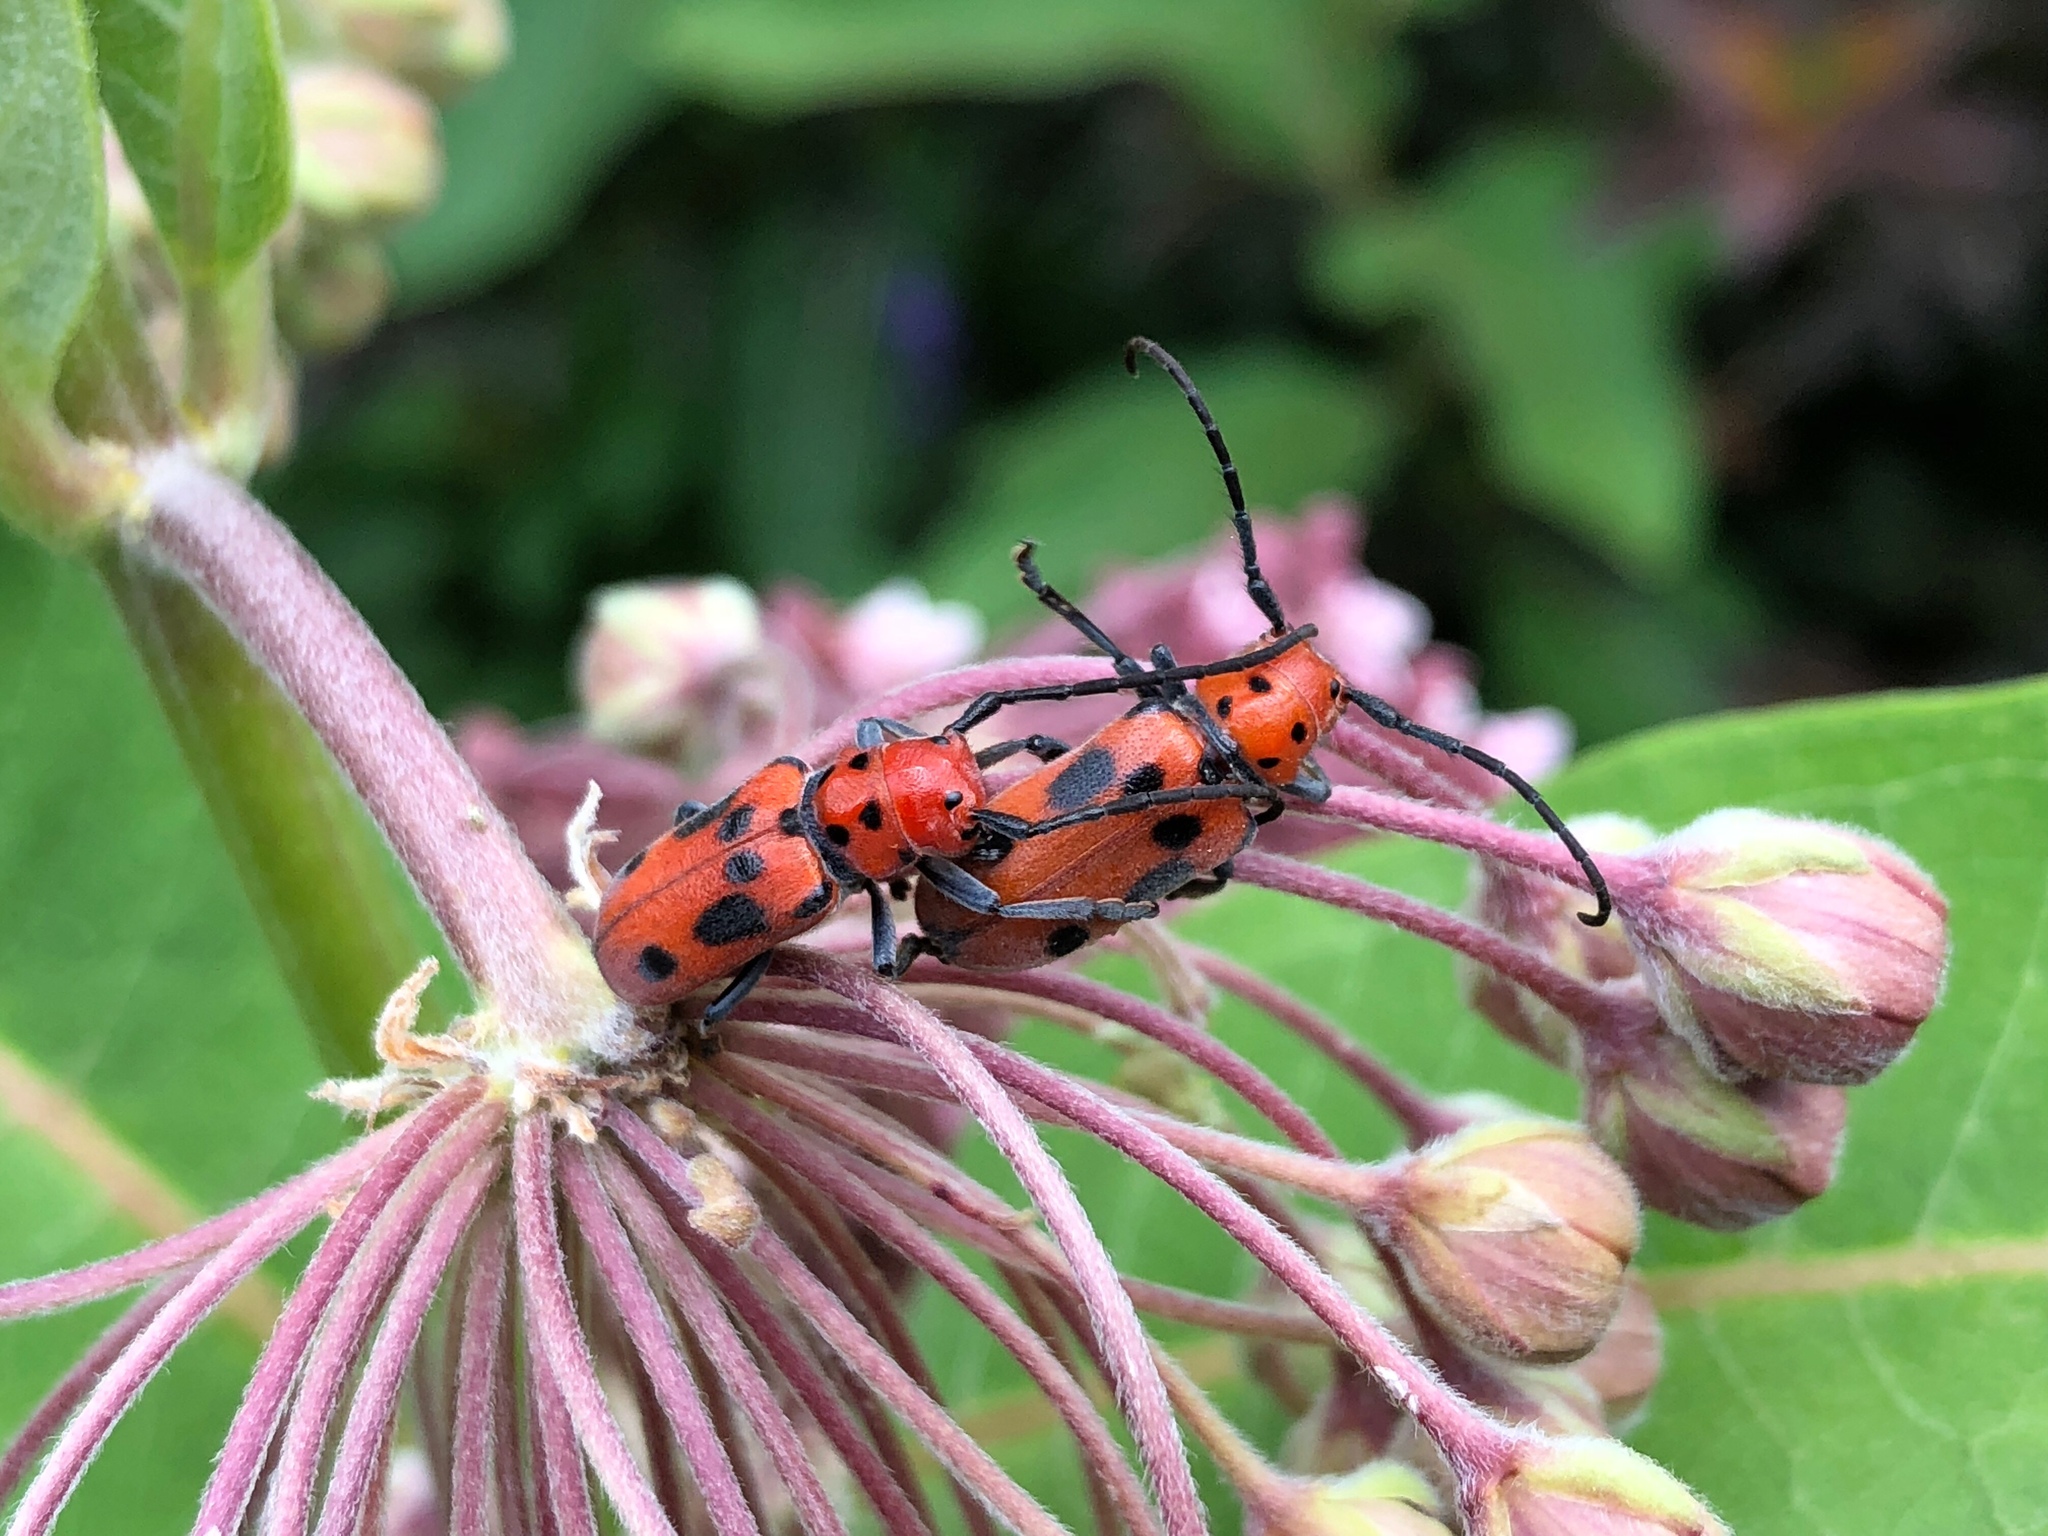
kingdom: Animalia
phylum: Arthropoda
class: Insecta
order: Coleoptera
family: Cerambycidae
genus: Tetraopes
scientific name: Tetraopes tetrophthalmus
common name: Red milkweed beetle
